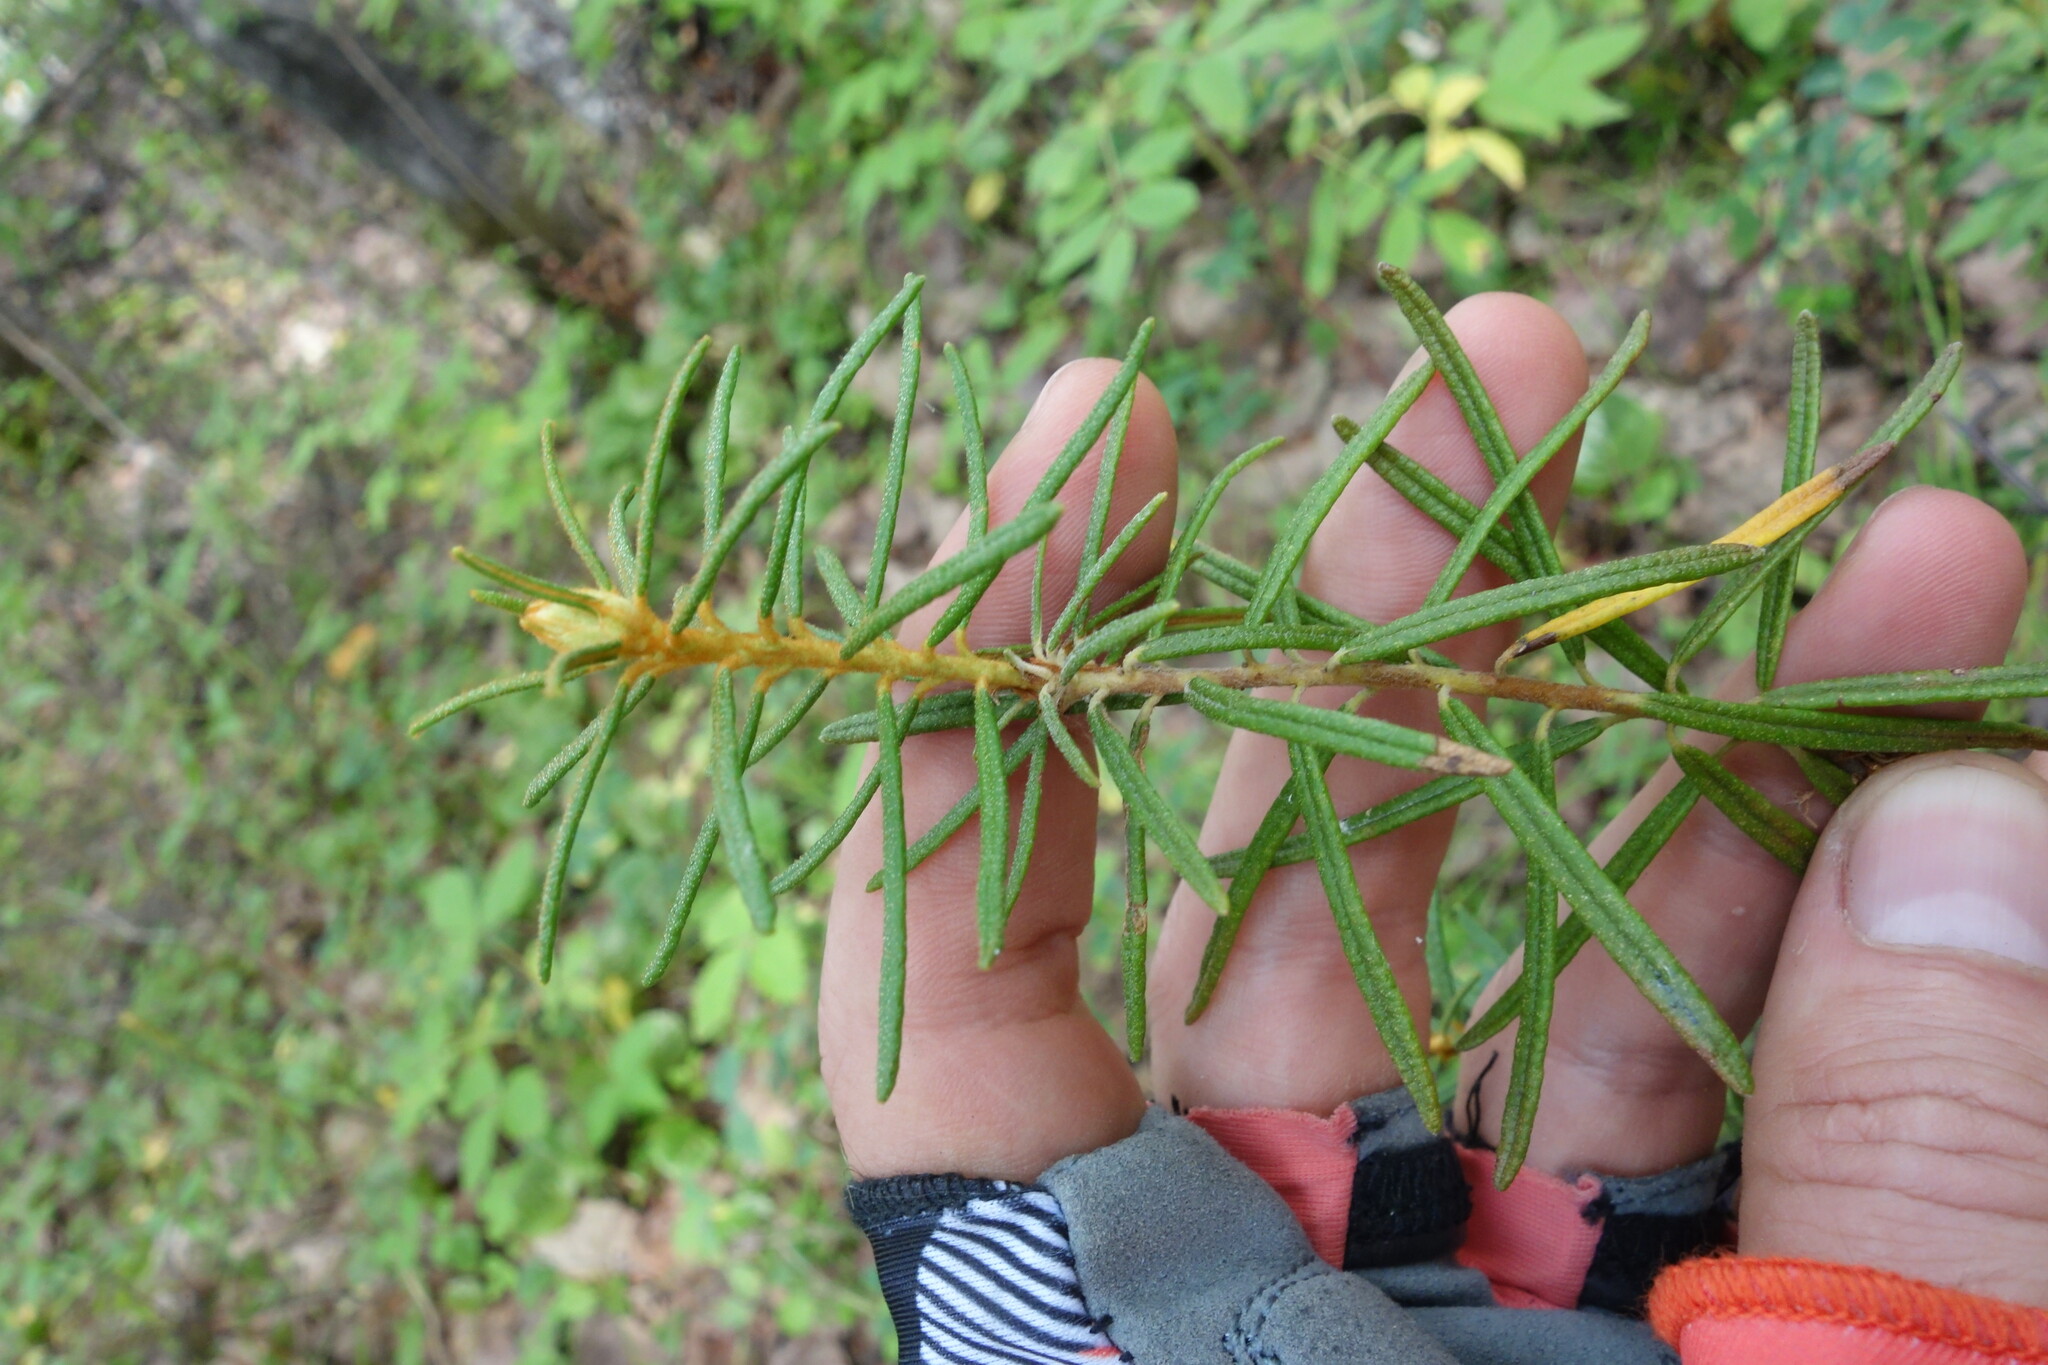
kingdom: Plantae
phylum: Tracheophyta
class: Magnoliopsida
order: Ericales
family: Ericaceae
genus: Rhododendron
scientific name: Rhododendron tomentosum
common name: Marsh labrador tea
